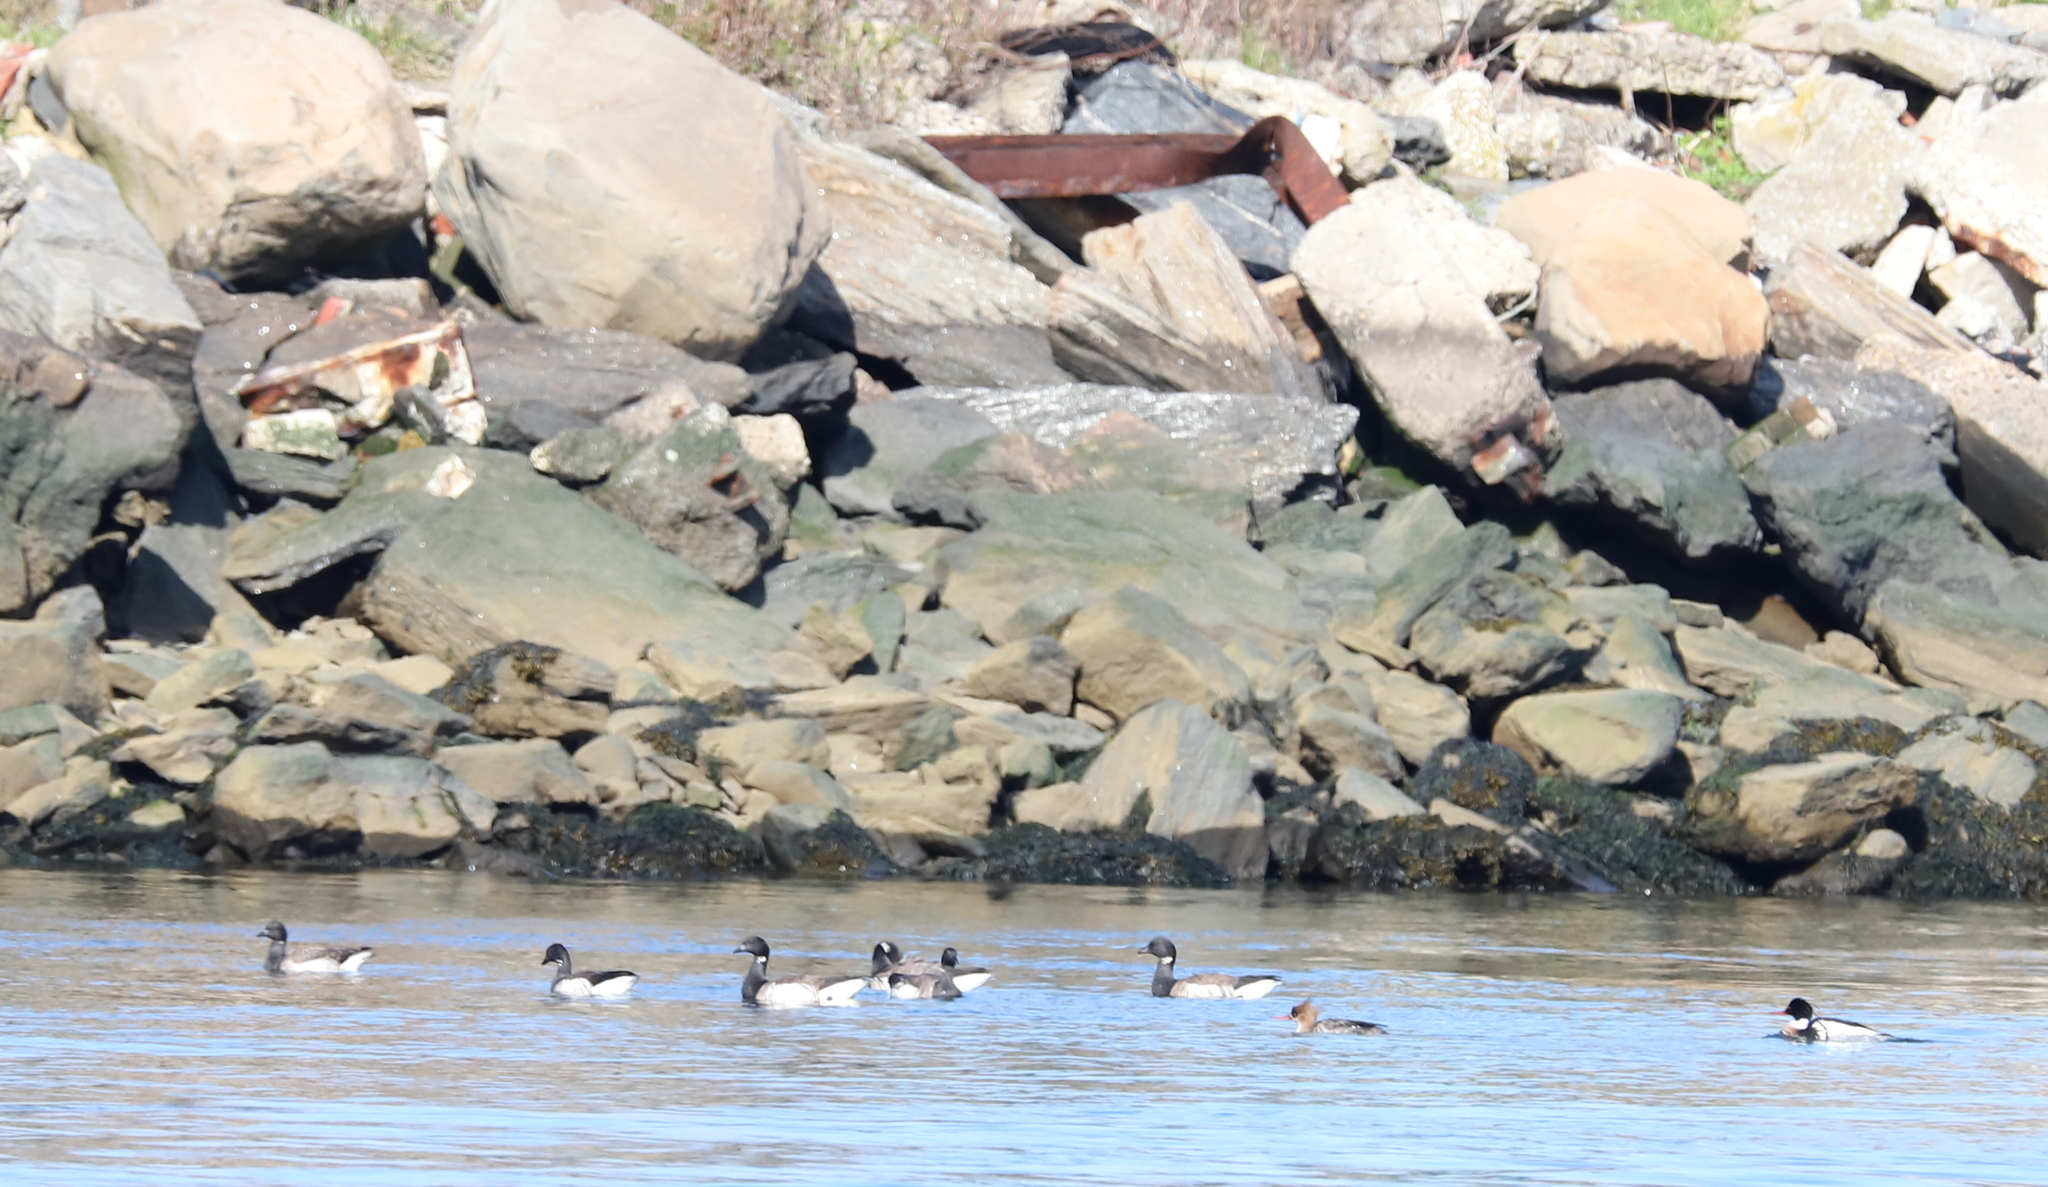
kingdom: Animalia
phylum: Chordata
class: Aves
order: Anseriformes
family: Anatidae
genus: Branta
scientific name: Branta bernicla
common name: Brant goose
